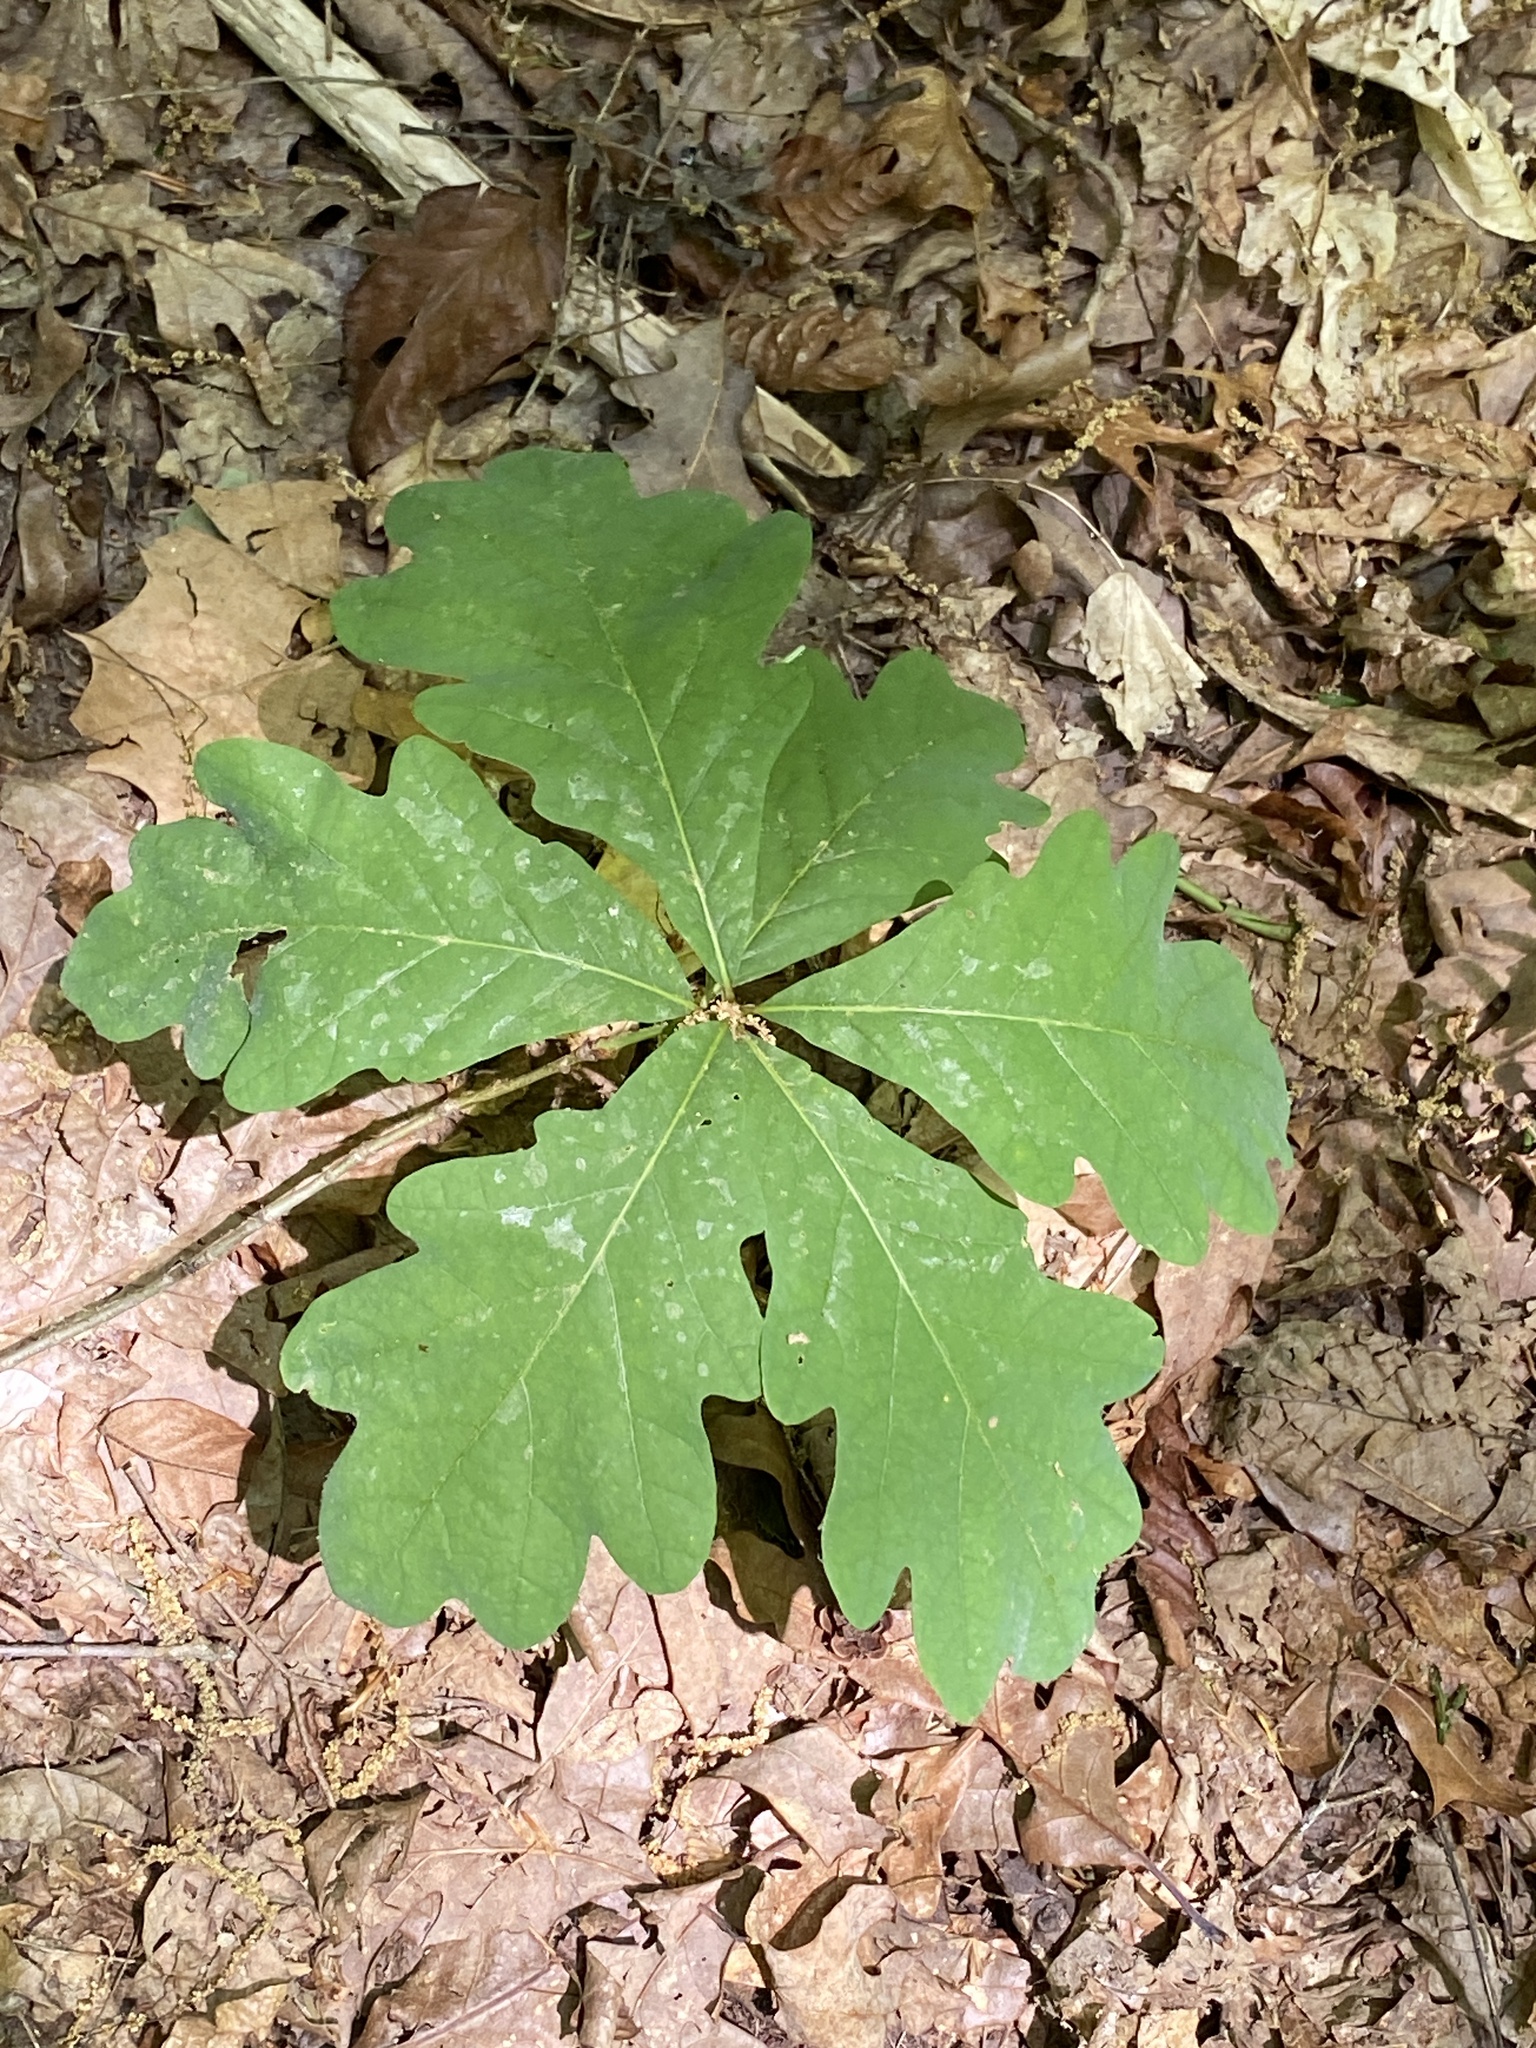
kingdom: Plantae
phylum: Tracheophyta
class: Magnoliopsida
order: Fagales
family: Fagaceae
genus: Quercus
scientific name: Quercus alba
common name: White oak
